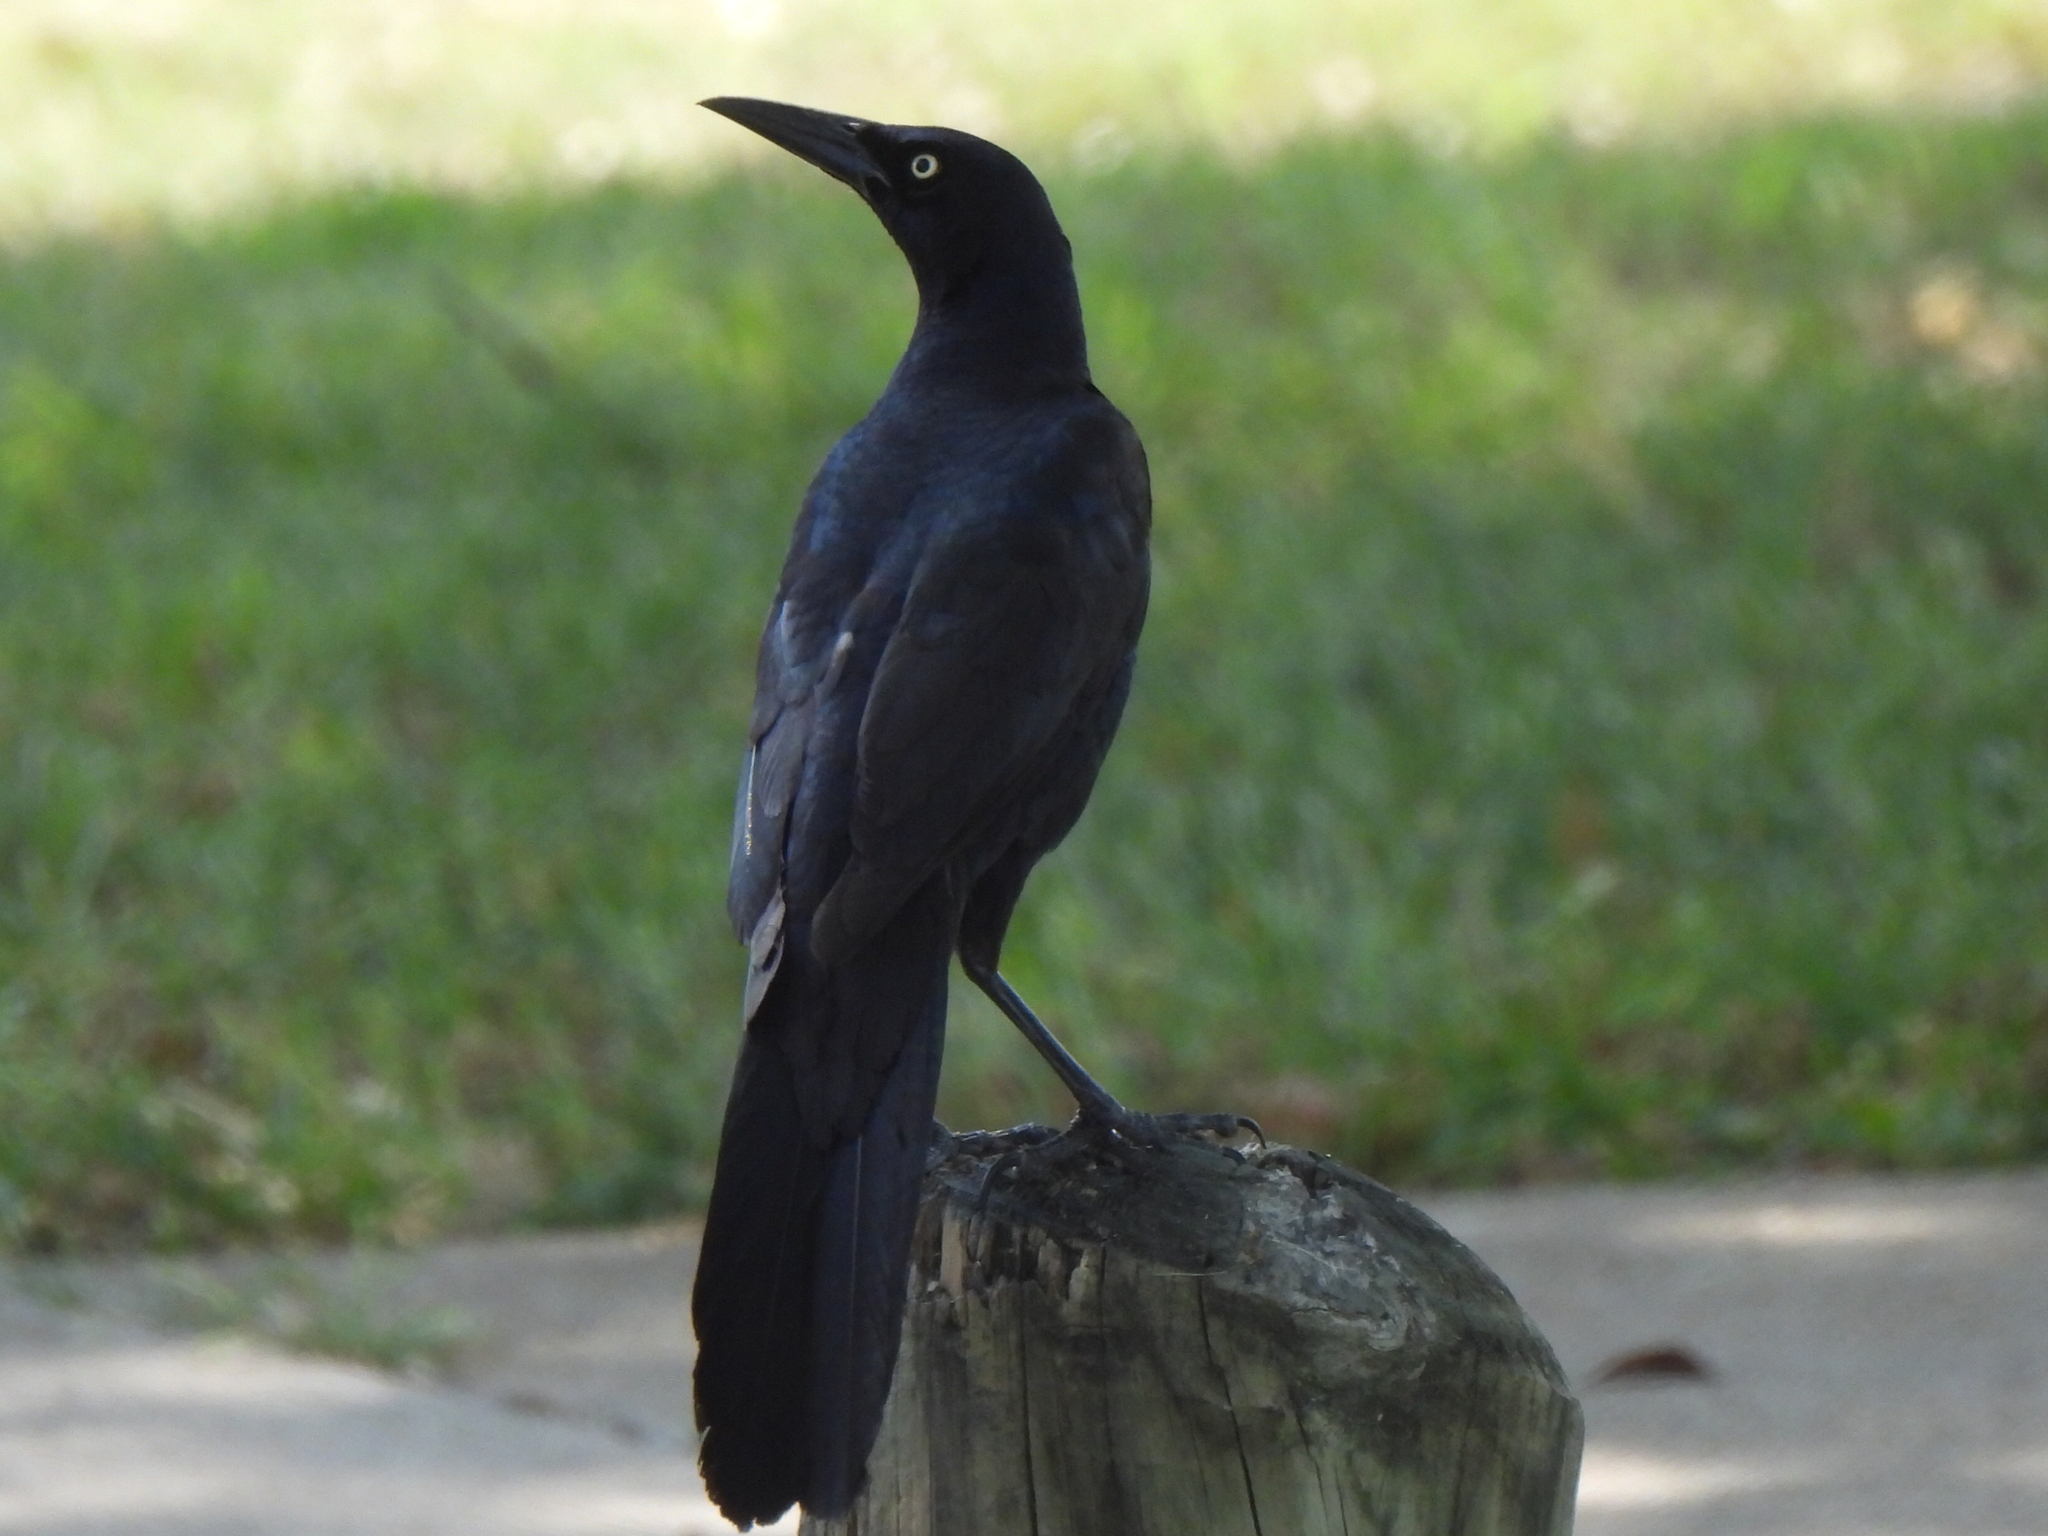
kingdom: Animalia
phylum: Chordata
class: Aves
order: Passeriformes
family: Icteridae
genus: Quiscalus
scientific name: Quiscalus mexicanus
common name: Great-tailed grackle
